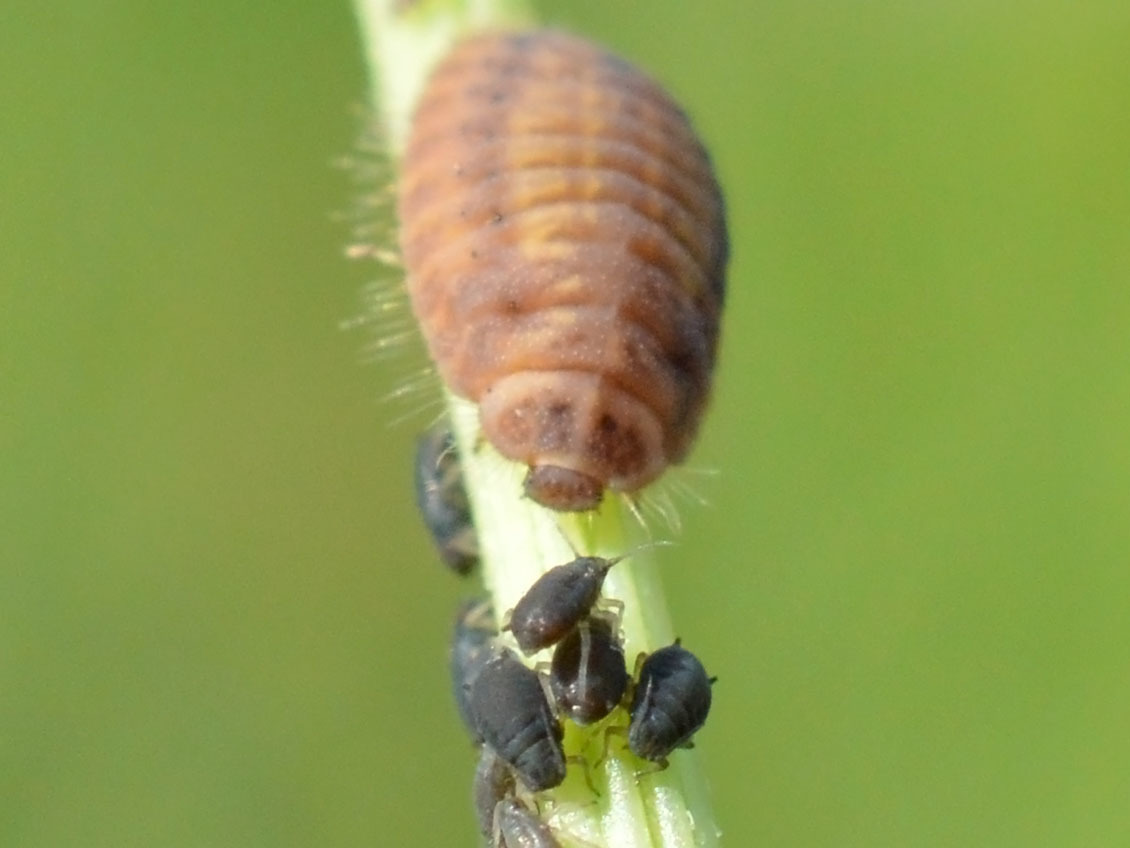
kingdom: Animalia
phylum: Arthropoda
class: Insecta
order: Coleoptera
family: Coccinellidae
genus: Platynaspis
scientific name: Platynaspis luteorubra
